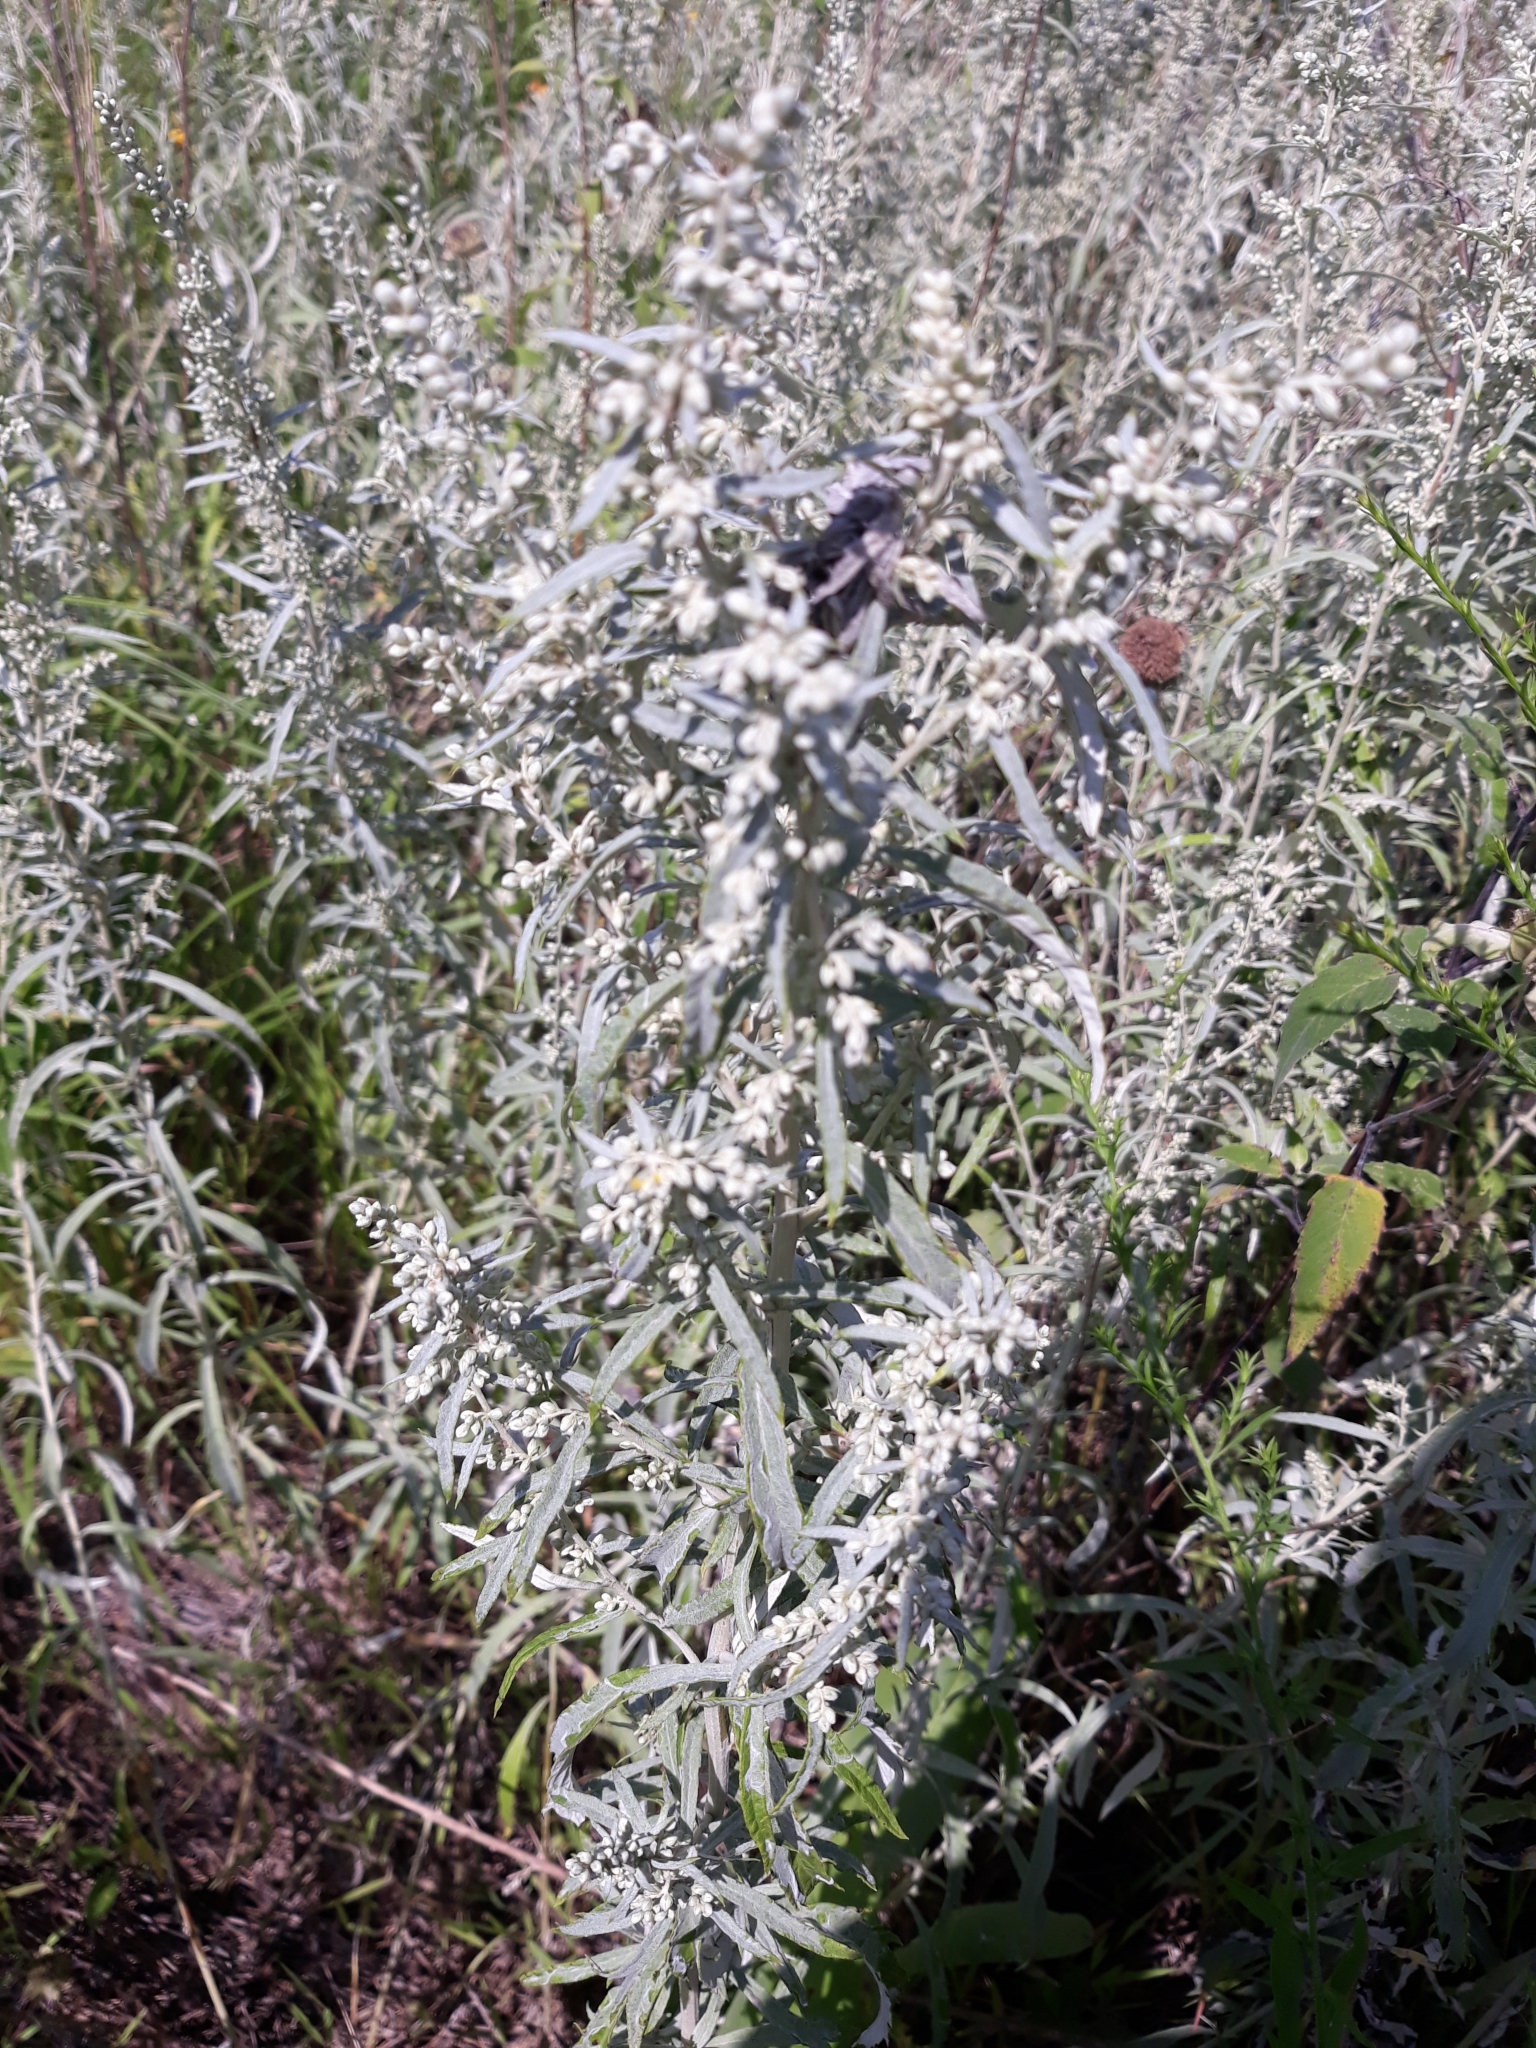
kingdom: Plantae
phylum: Tracheophyta
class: Magnoliopsida
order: Asterales
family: Asteraceae
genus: Artemisia
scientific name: Artemisia frigida
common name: Prairie sagewort
